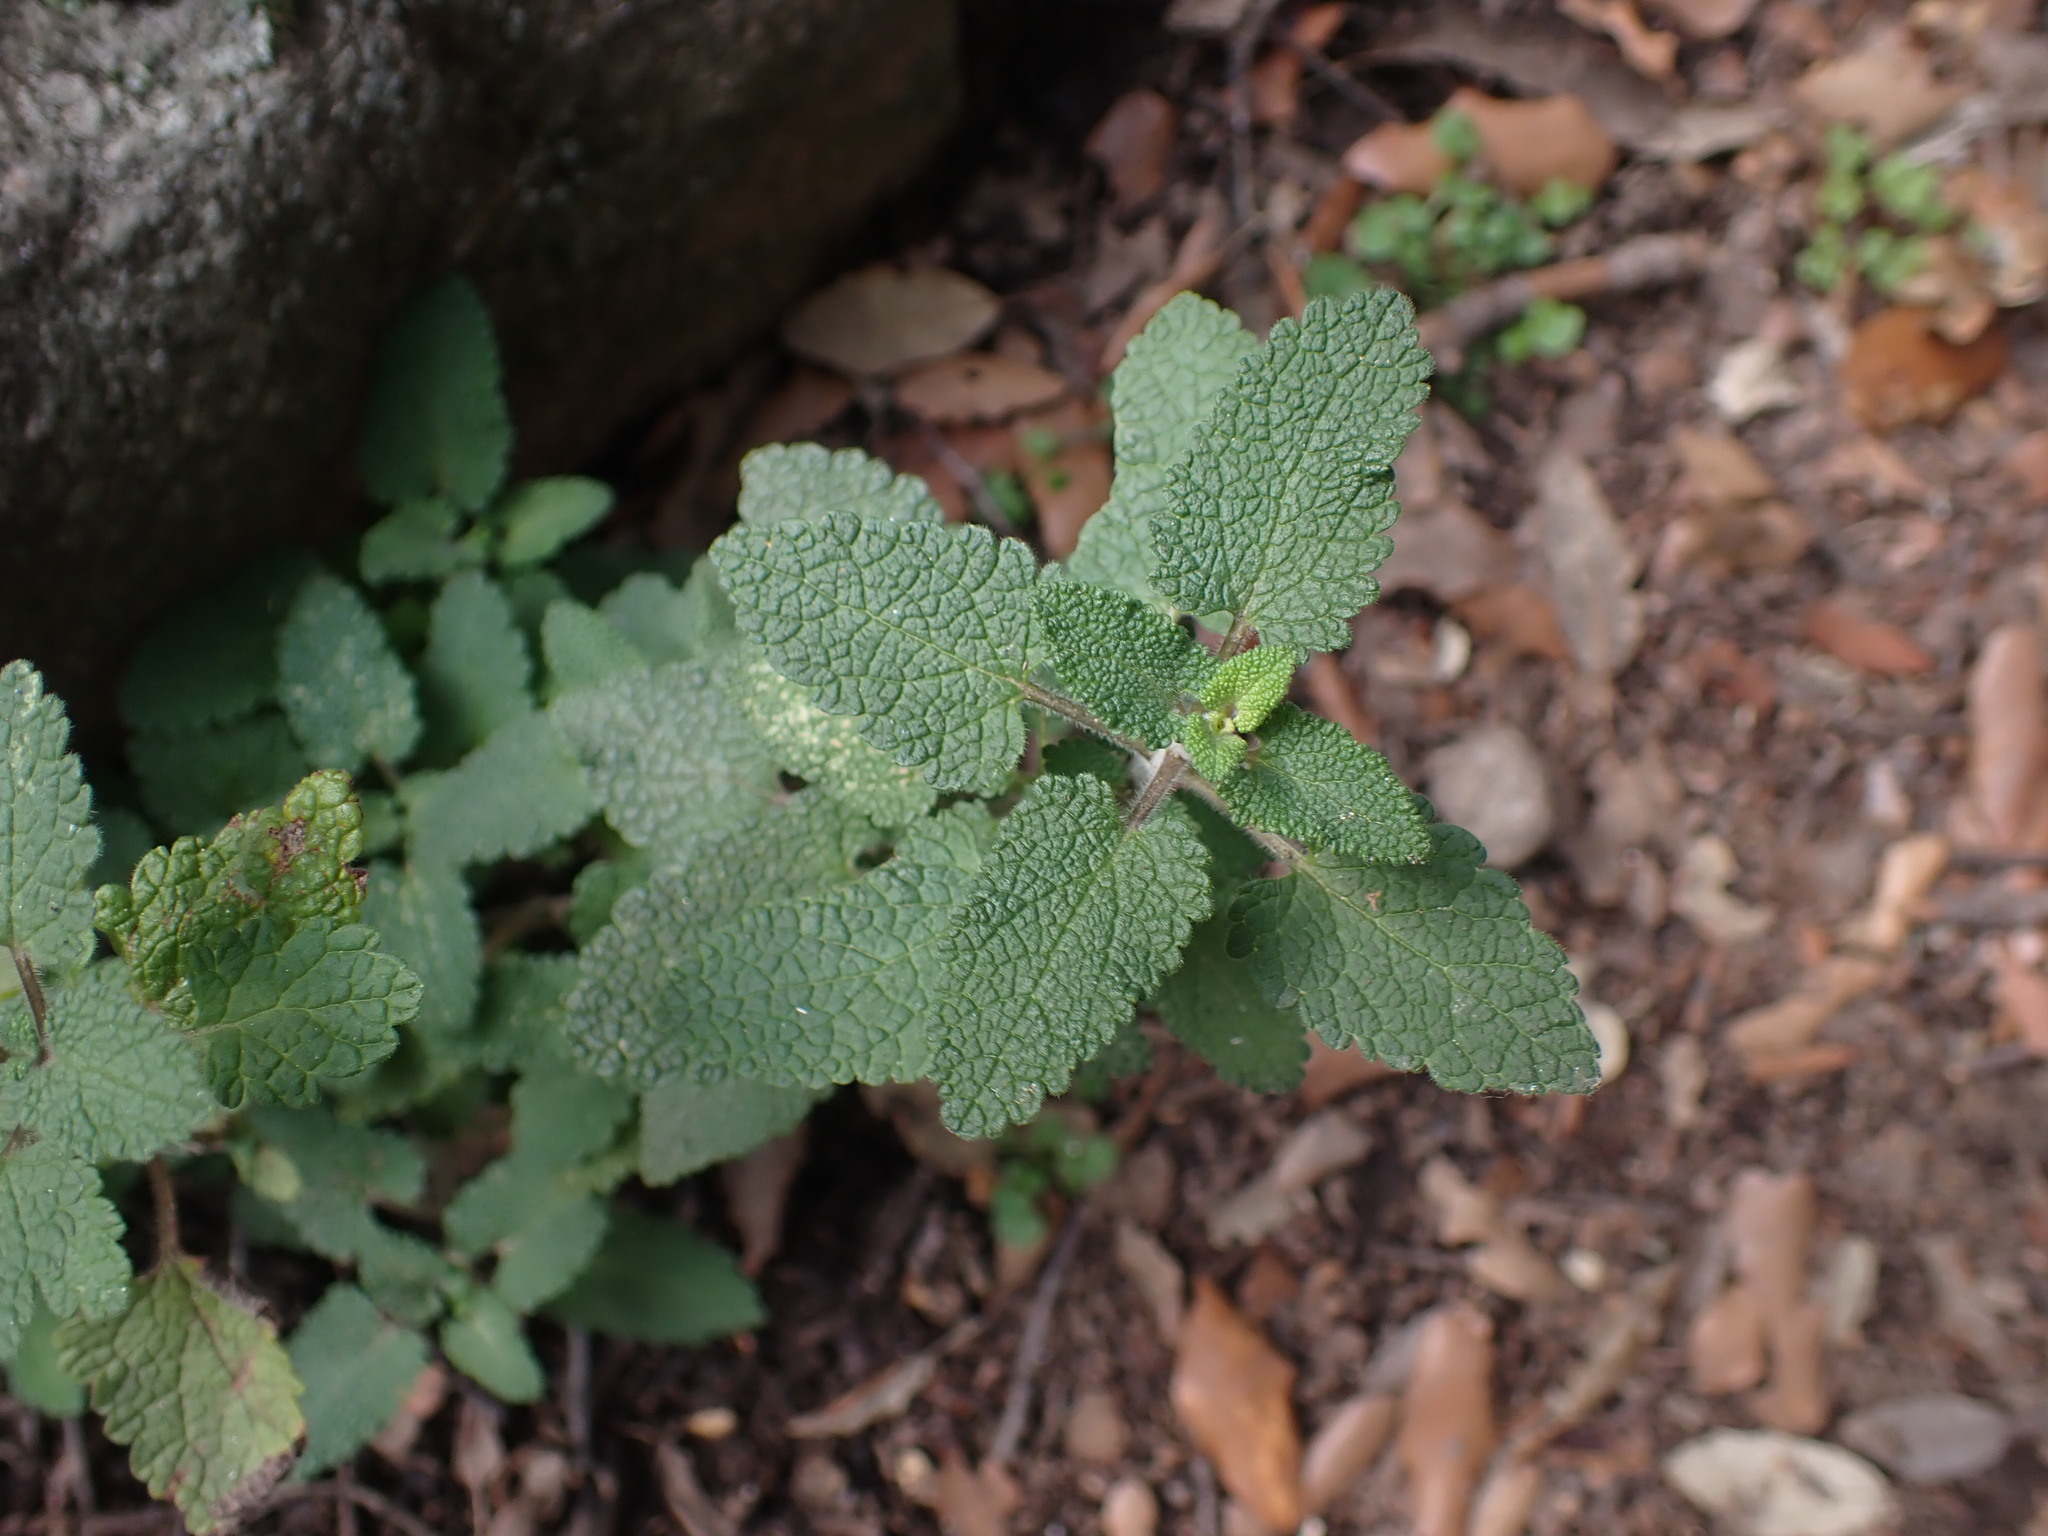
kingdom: Plantae
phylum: Tracheophyta
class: Magnoliopsida
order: Lamiales
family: Lamiaceae
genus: Teucrium
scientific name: Teucrium scorodonia
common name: Woodland germander
